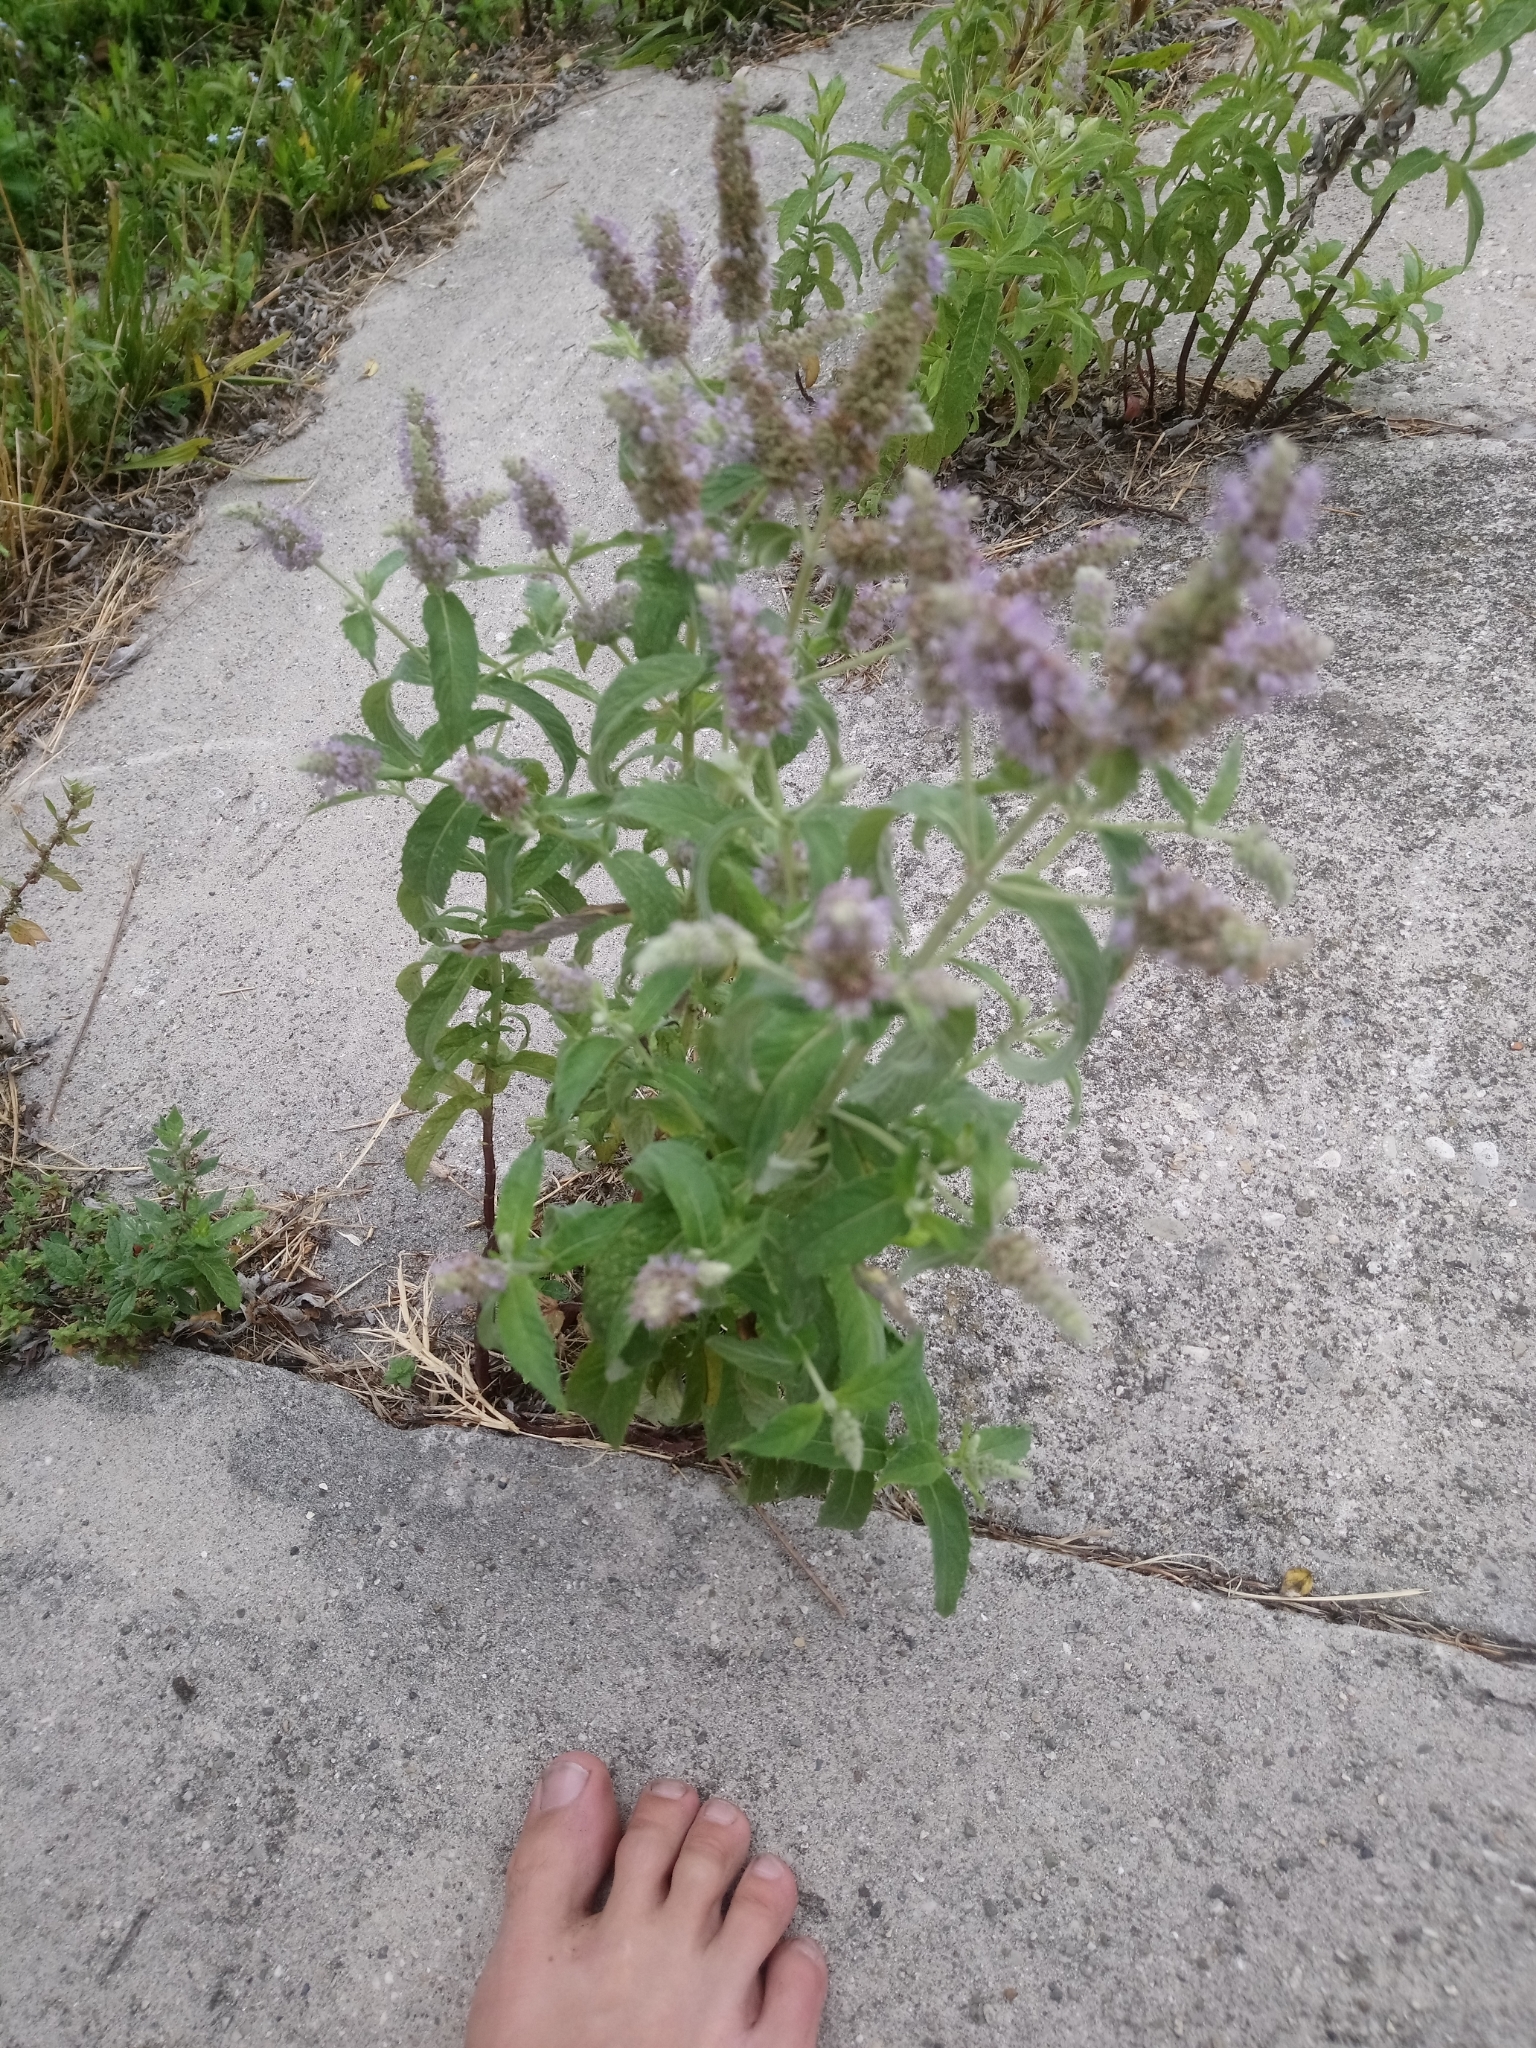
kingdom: Plantae
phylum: Tracheophyta
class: Magnoliopsida
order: Lamiales
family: Lamiaceae
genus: Mentha
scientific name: Mentha longifolia
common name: Horse mint
